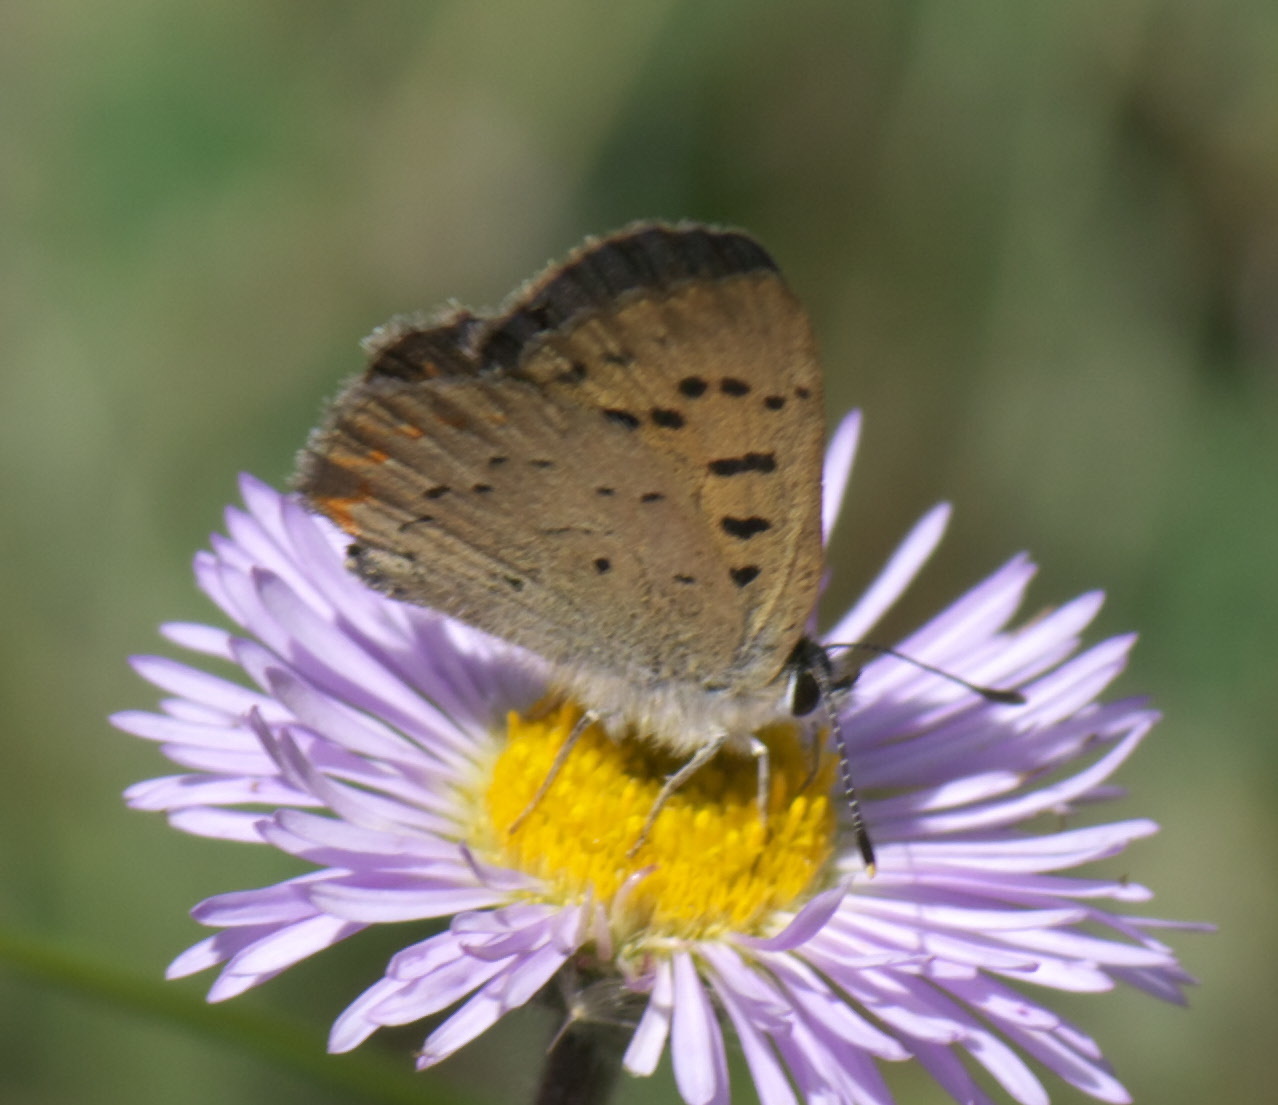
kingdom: Animalia
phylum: Arthropoda
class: Insecta
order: Lepidoptera
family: Lycaenidae
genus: Tharsalea
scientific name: Tharsalea helloides
